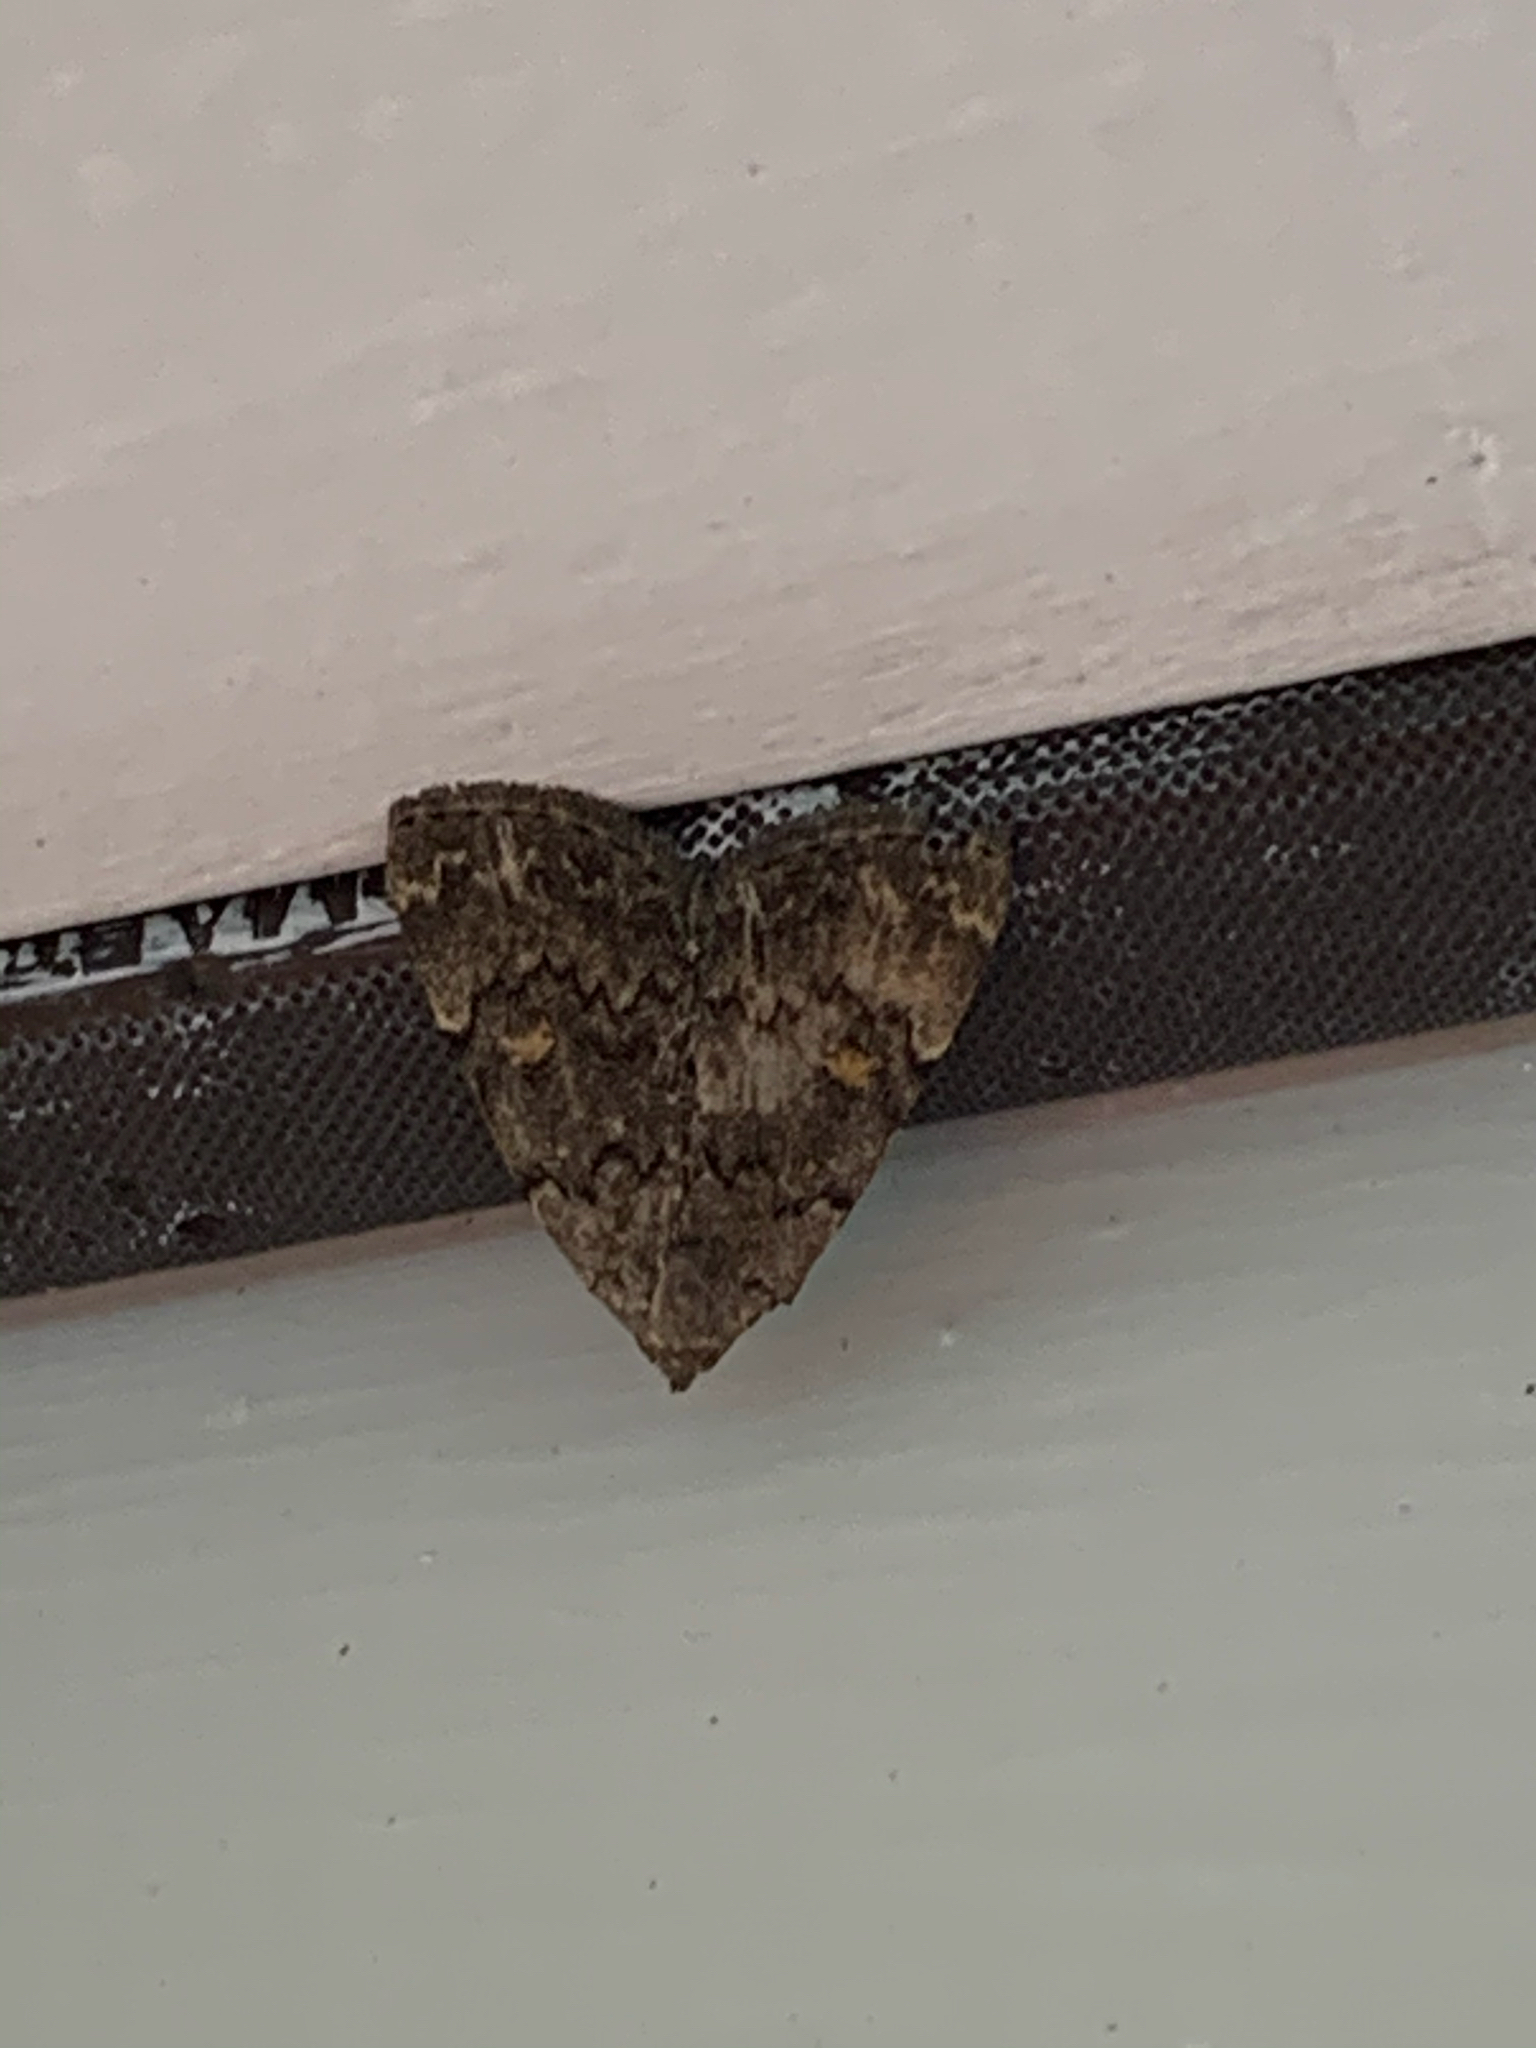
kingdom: Animalia
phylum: Arthropoda
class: Insecta
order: Lepidoptera
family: Erebidae
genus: Idia
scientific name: Idia aemula
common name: Common idia moth
